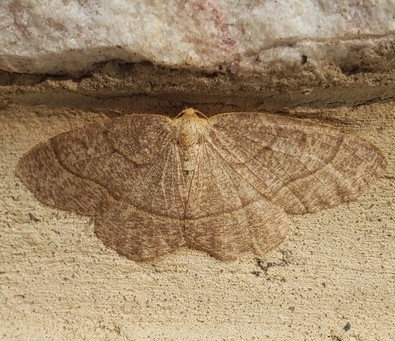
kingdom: Animalia
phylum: Arthropoda
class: Insecta
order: Lepidoptera
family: Geometridae
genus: Lambdina
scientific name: Lambdina fervidaria
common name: Curve-lined looper moth
